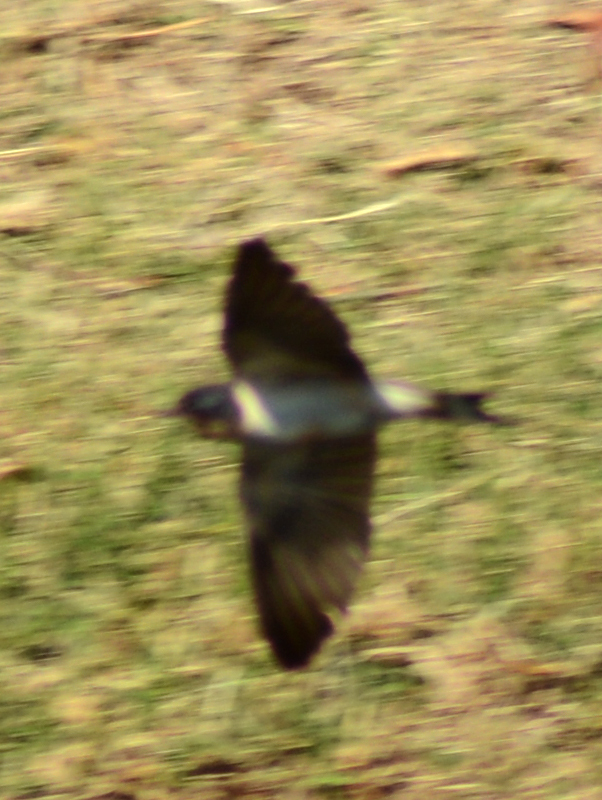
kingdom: Animalia
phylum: Chordata
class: Aves
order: Passeriformes
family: Hirundinidae
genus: Hirundo
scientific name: Hirundo rustica
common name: Barn swallow
